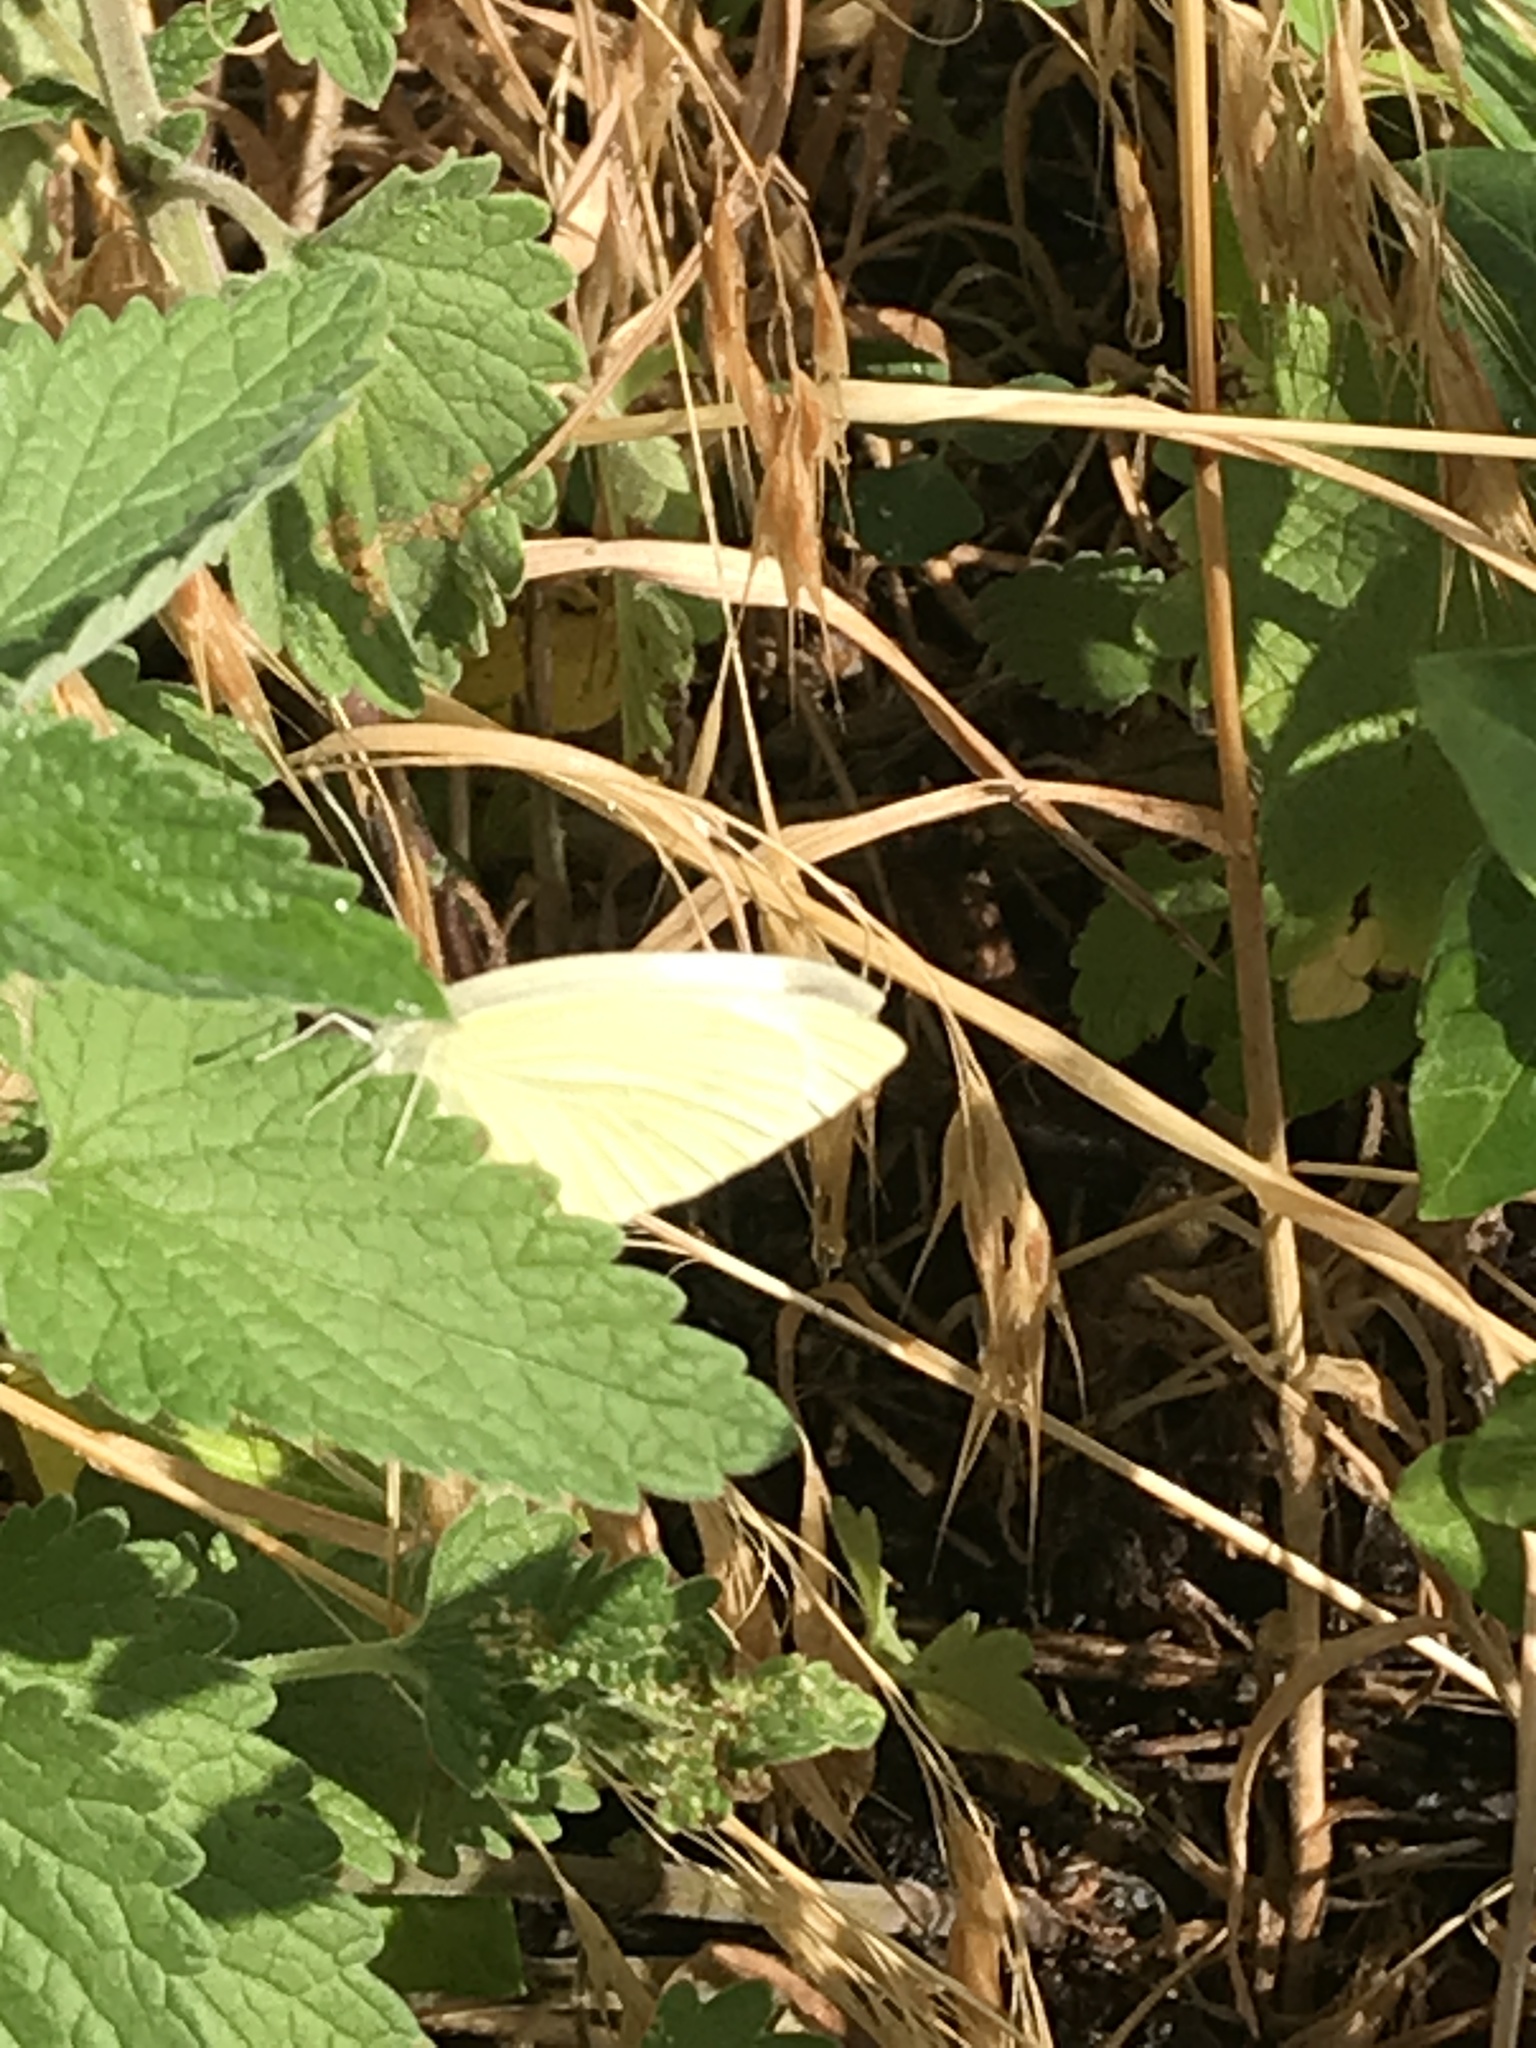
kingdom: Animalia
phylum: Arthropoda
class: Insecta
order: Lepidoptera
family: Pieridae
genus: Pieris
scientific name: Pieris rapae
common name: Small white
